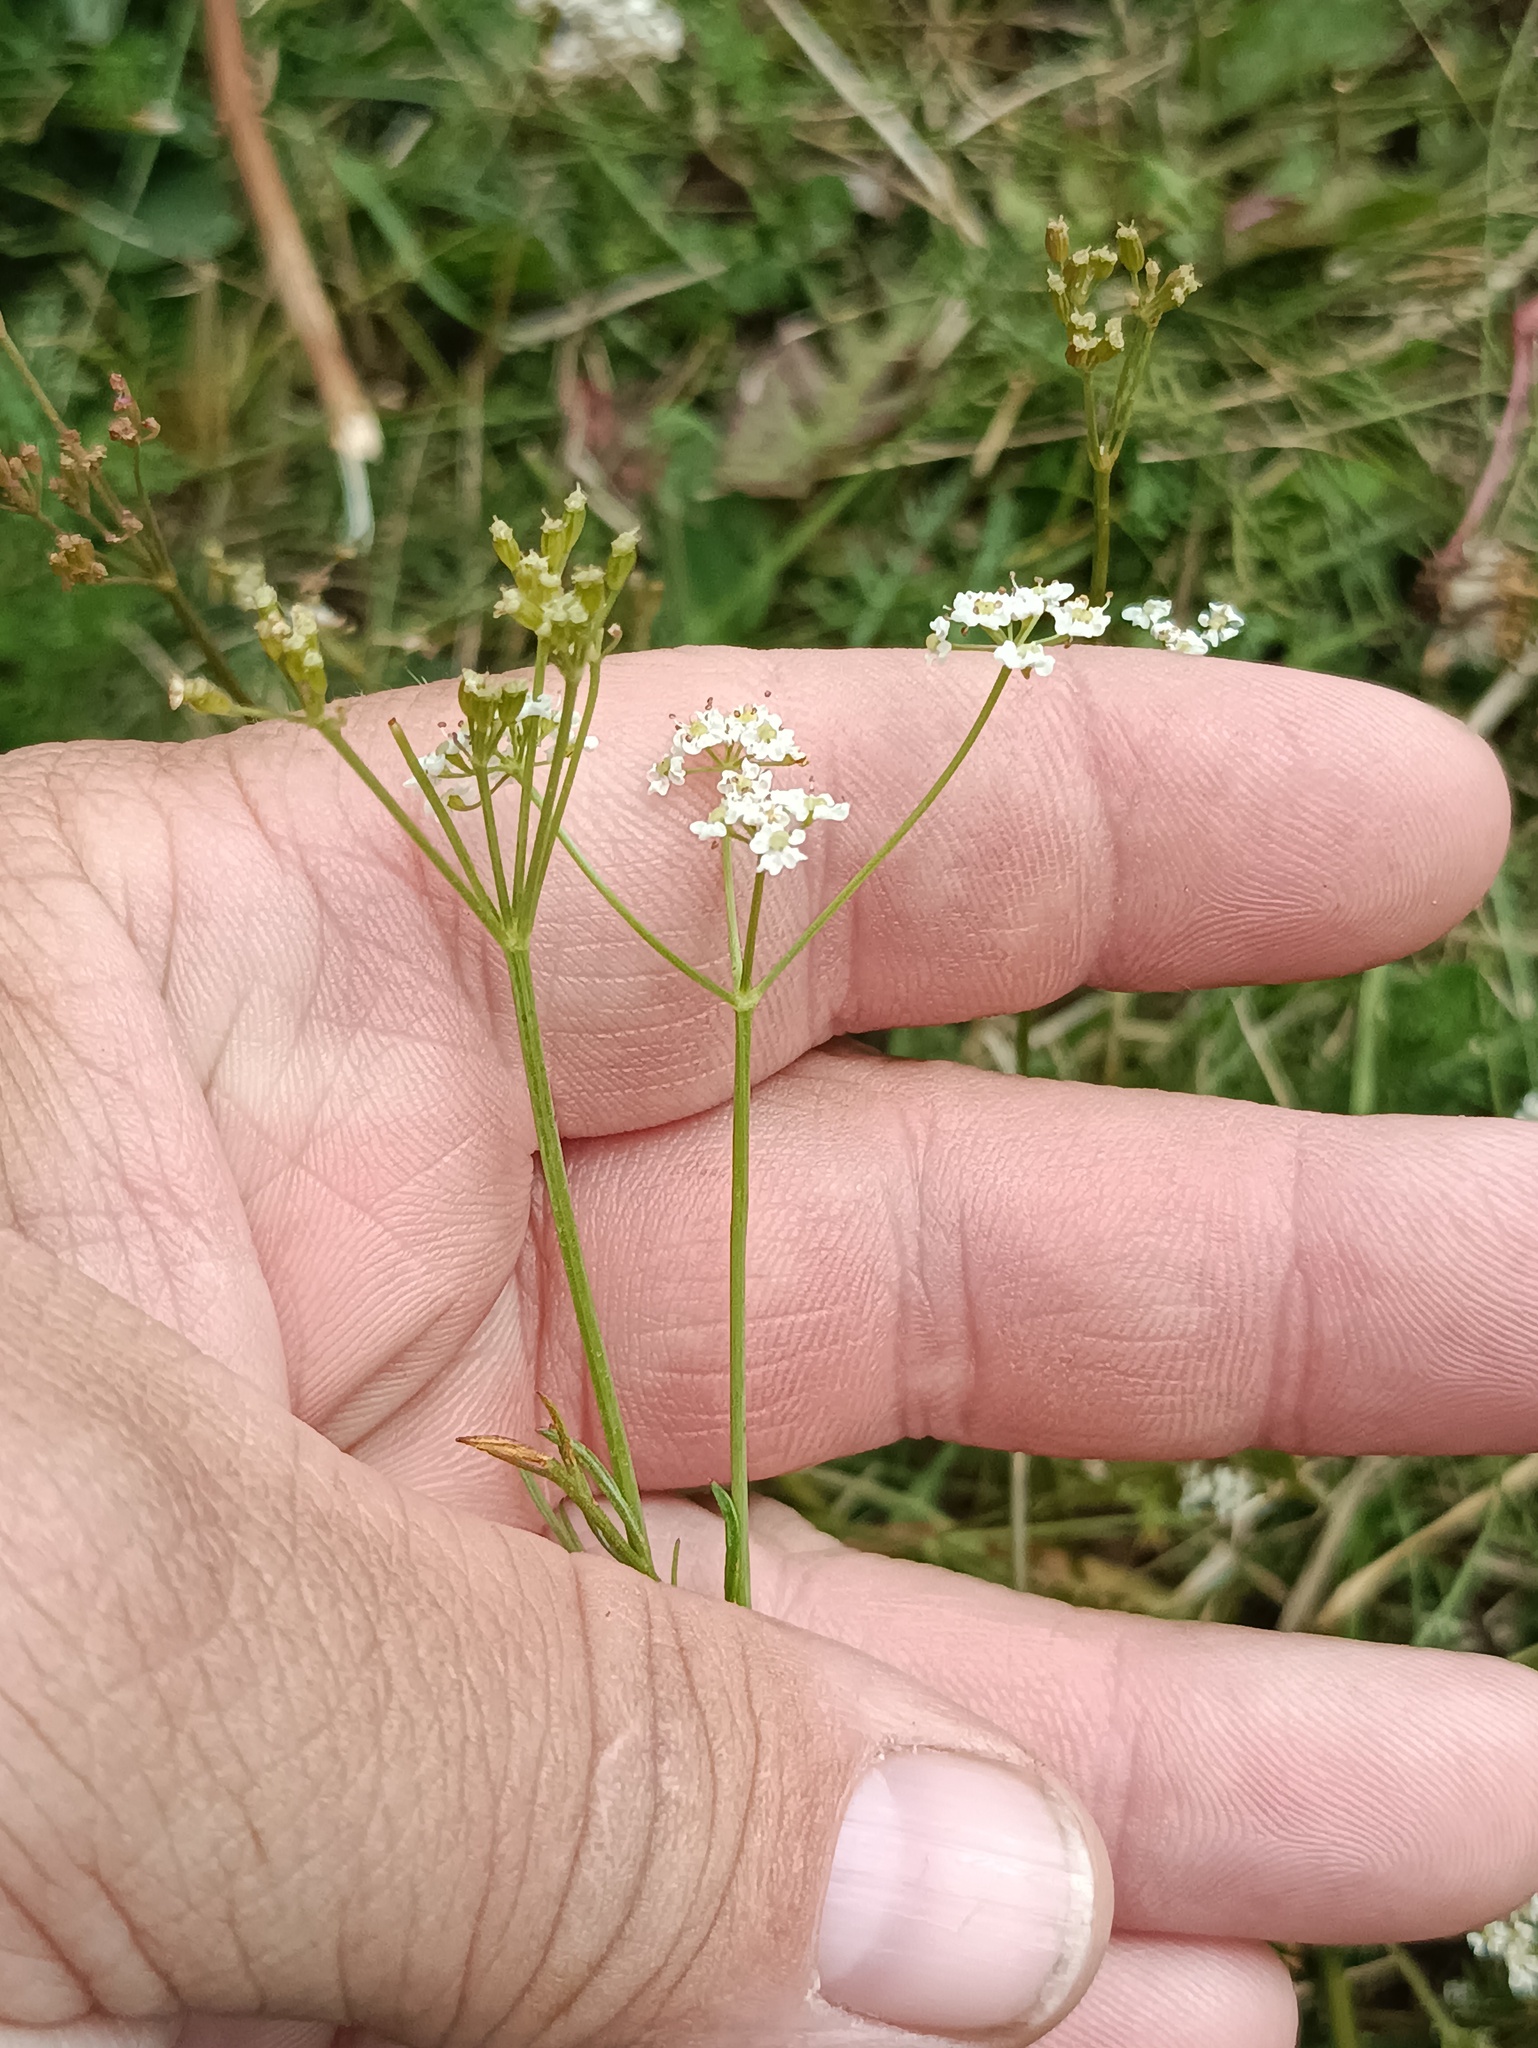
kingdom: Plantae
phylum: Tracheophyta
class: Magnoliopsida
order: Apiales
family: Apiaceae
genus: Carum
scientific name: Carum carvi
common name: Caraway
